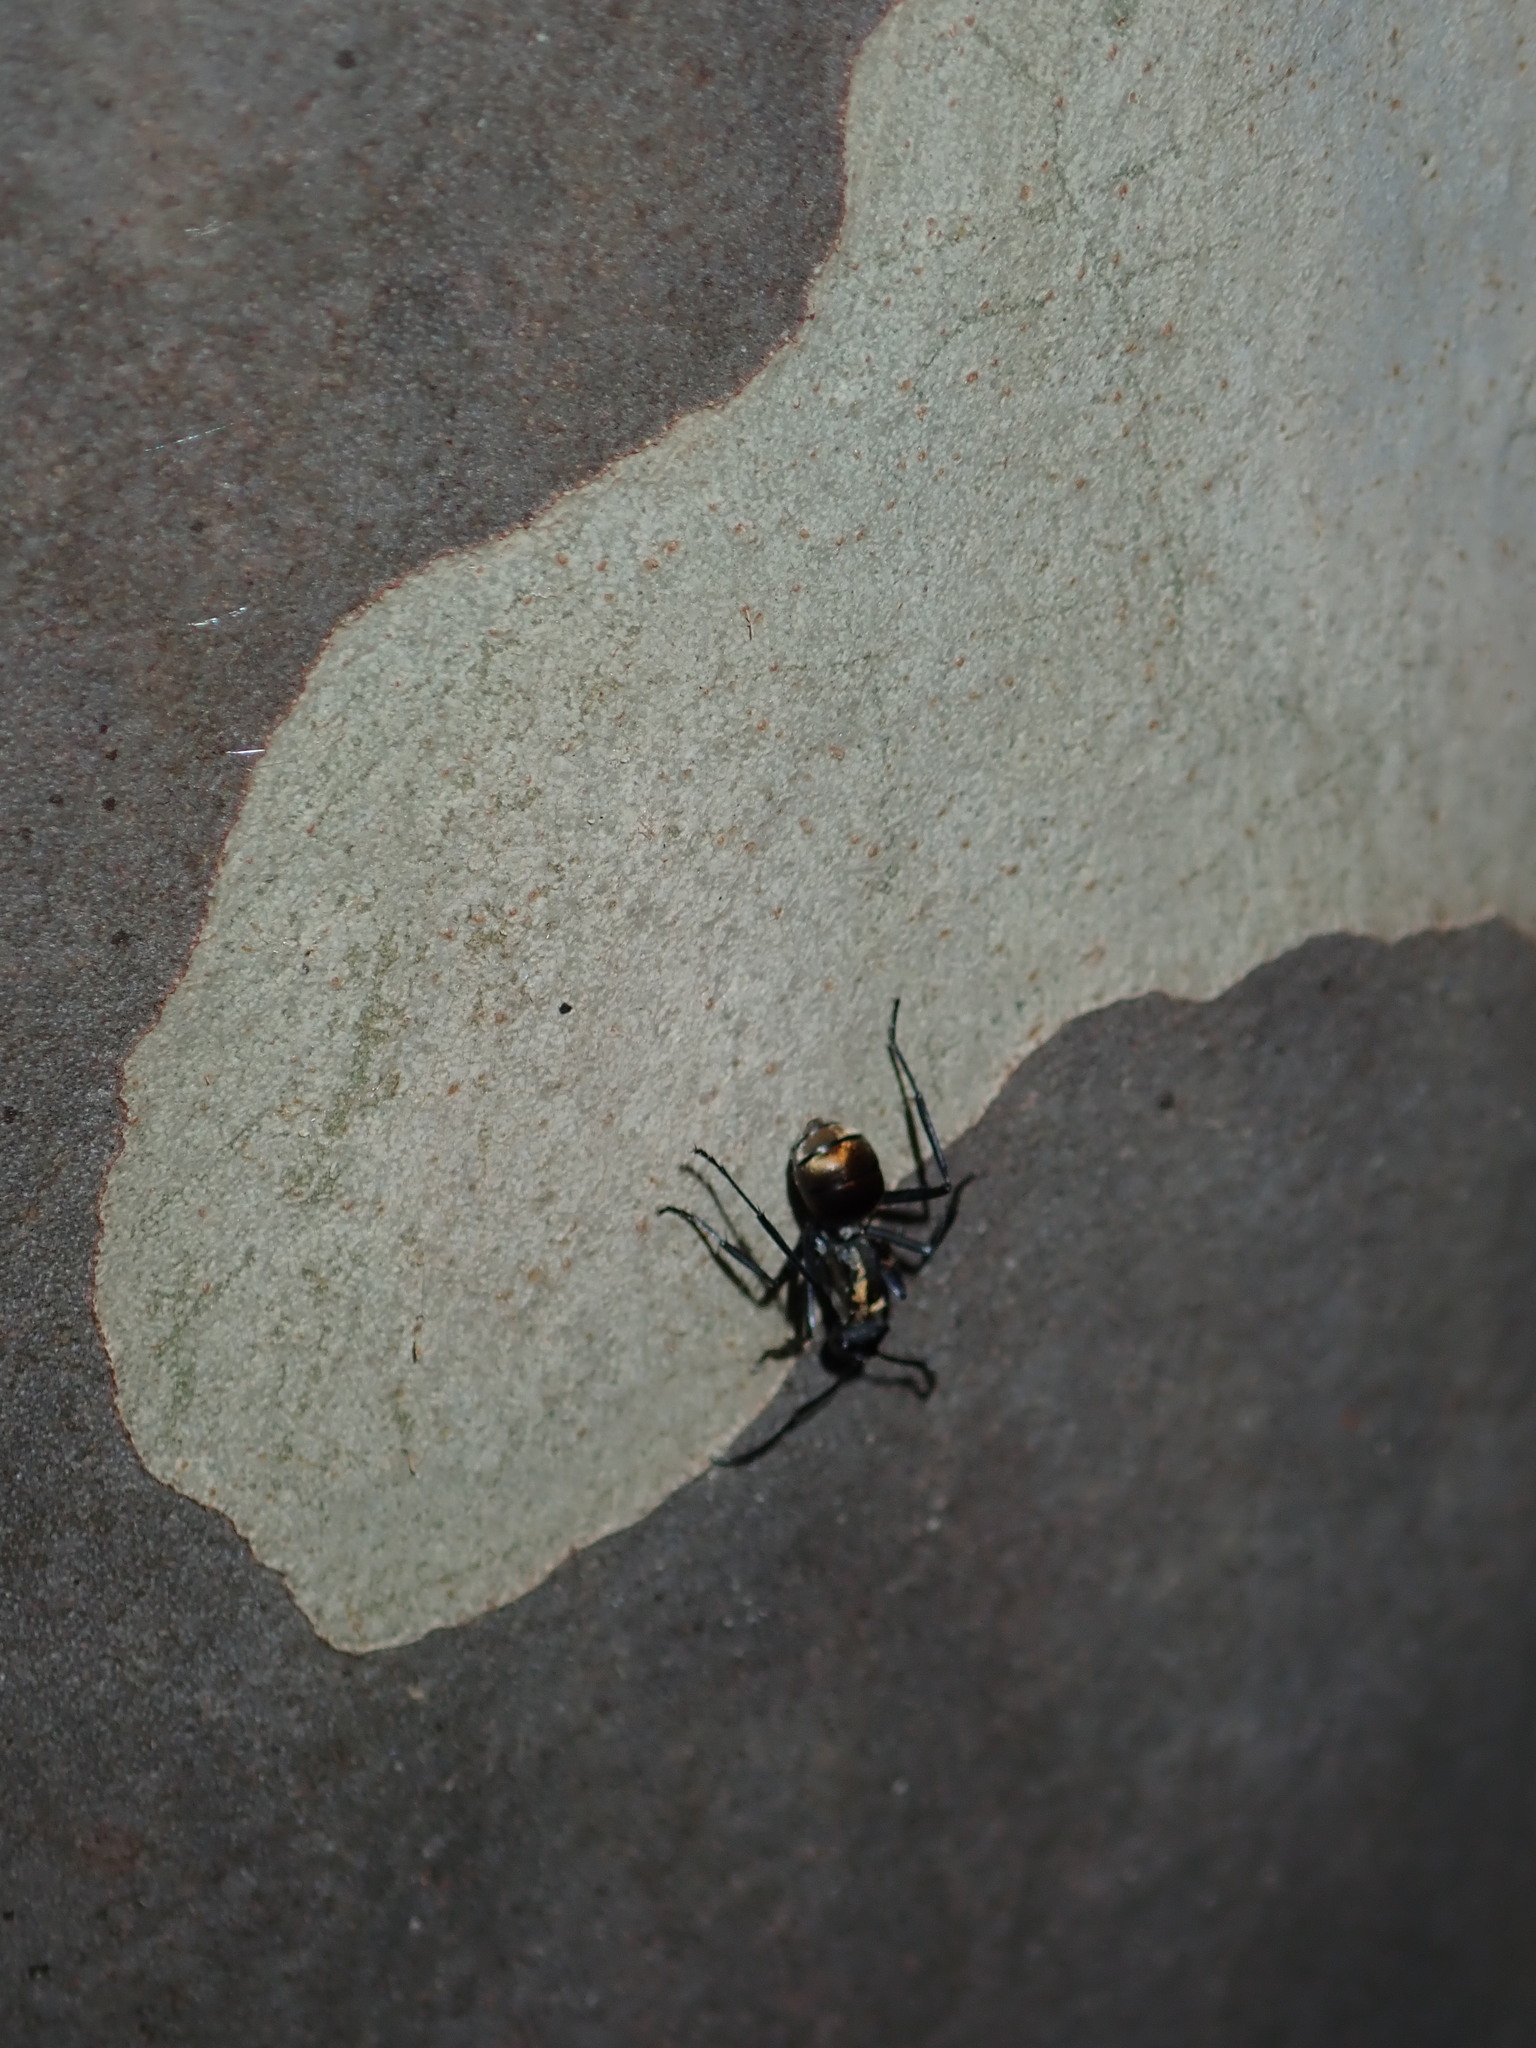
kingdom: Animalia
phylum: Arthropoda
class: Insecta
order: Hymenoptera
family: Formicidae
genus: Polyrhachis
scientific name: Polyrhachis ammon
